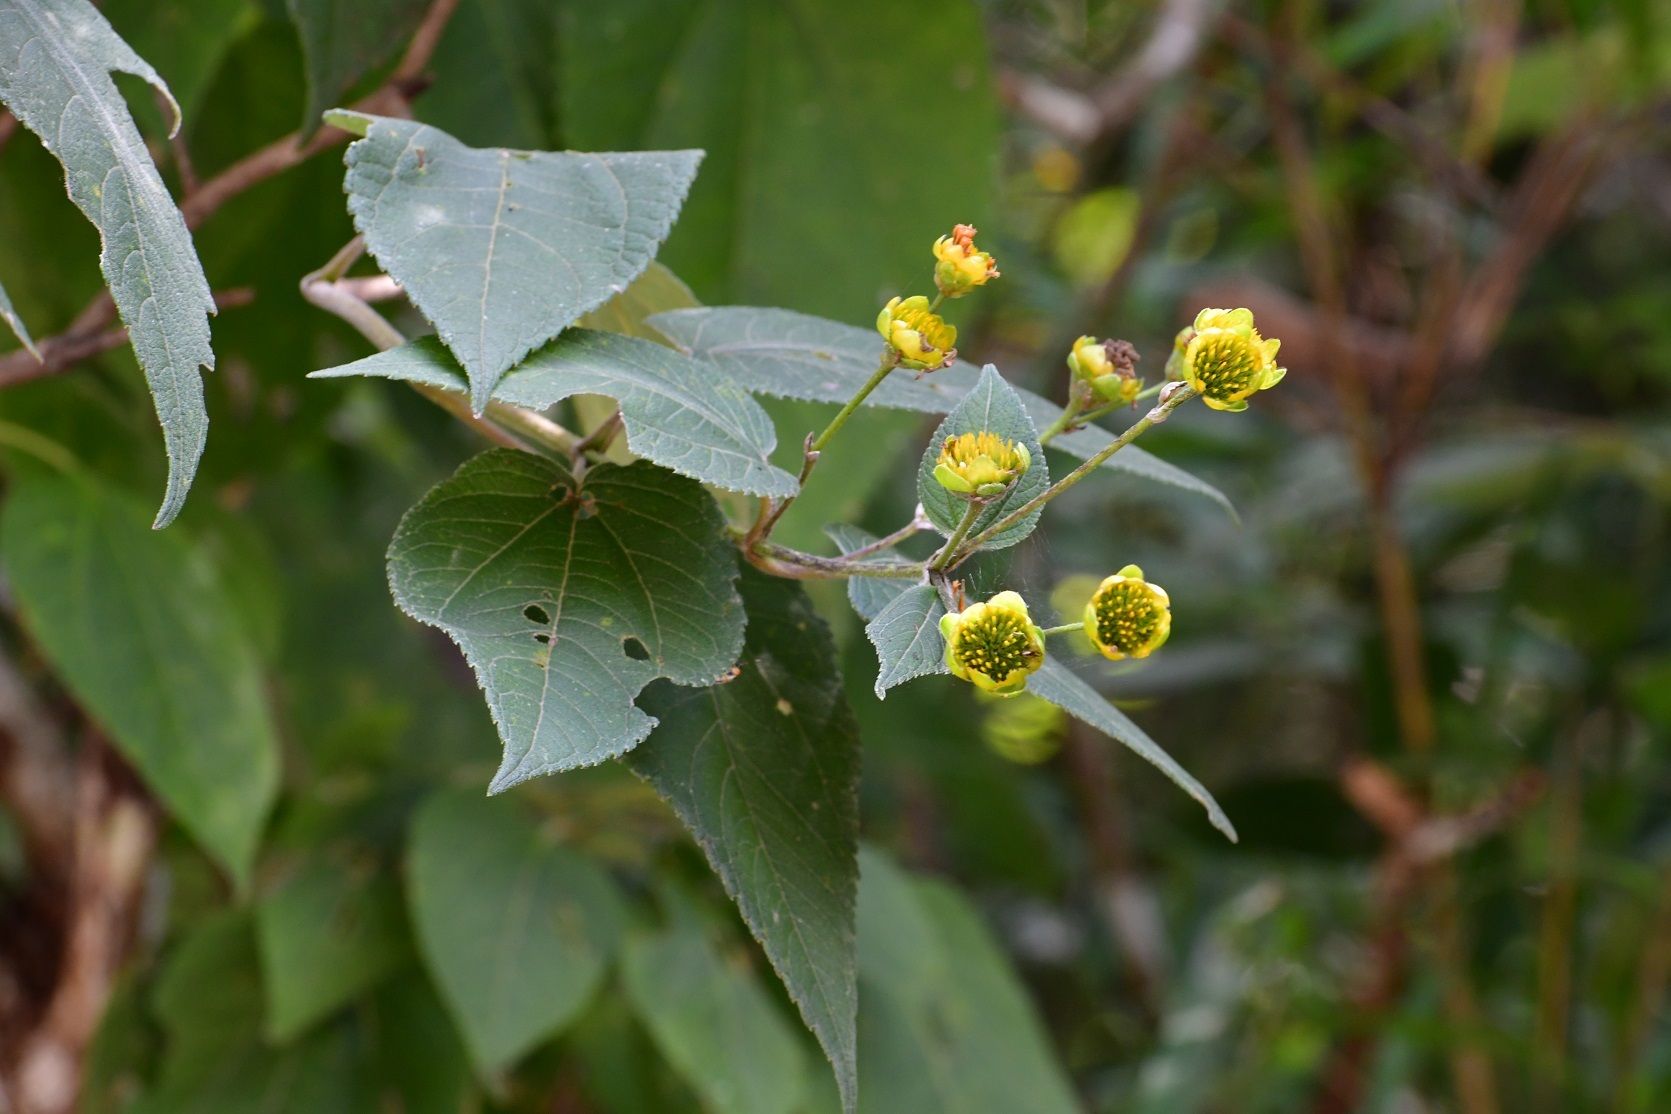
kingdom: Plantae
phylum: Tracheophyta
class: Magnoliopsida
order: Asterales
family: Asteraceae
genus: Lasianthaea
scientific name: Lasianthaea fruticosa
